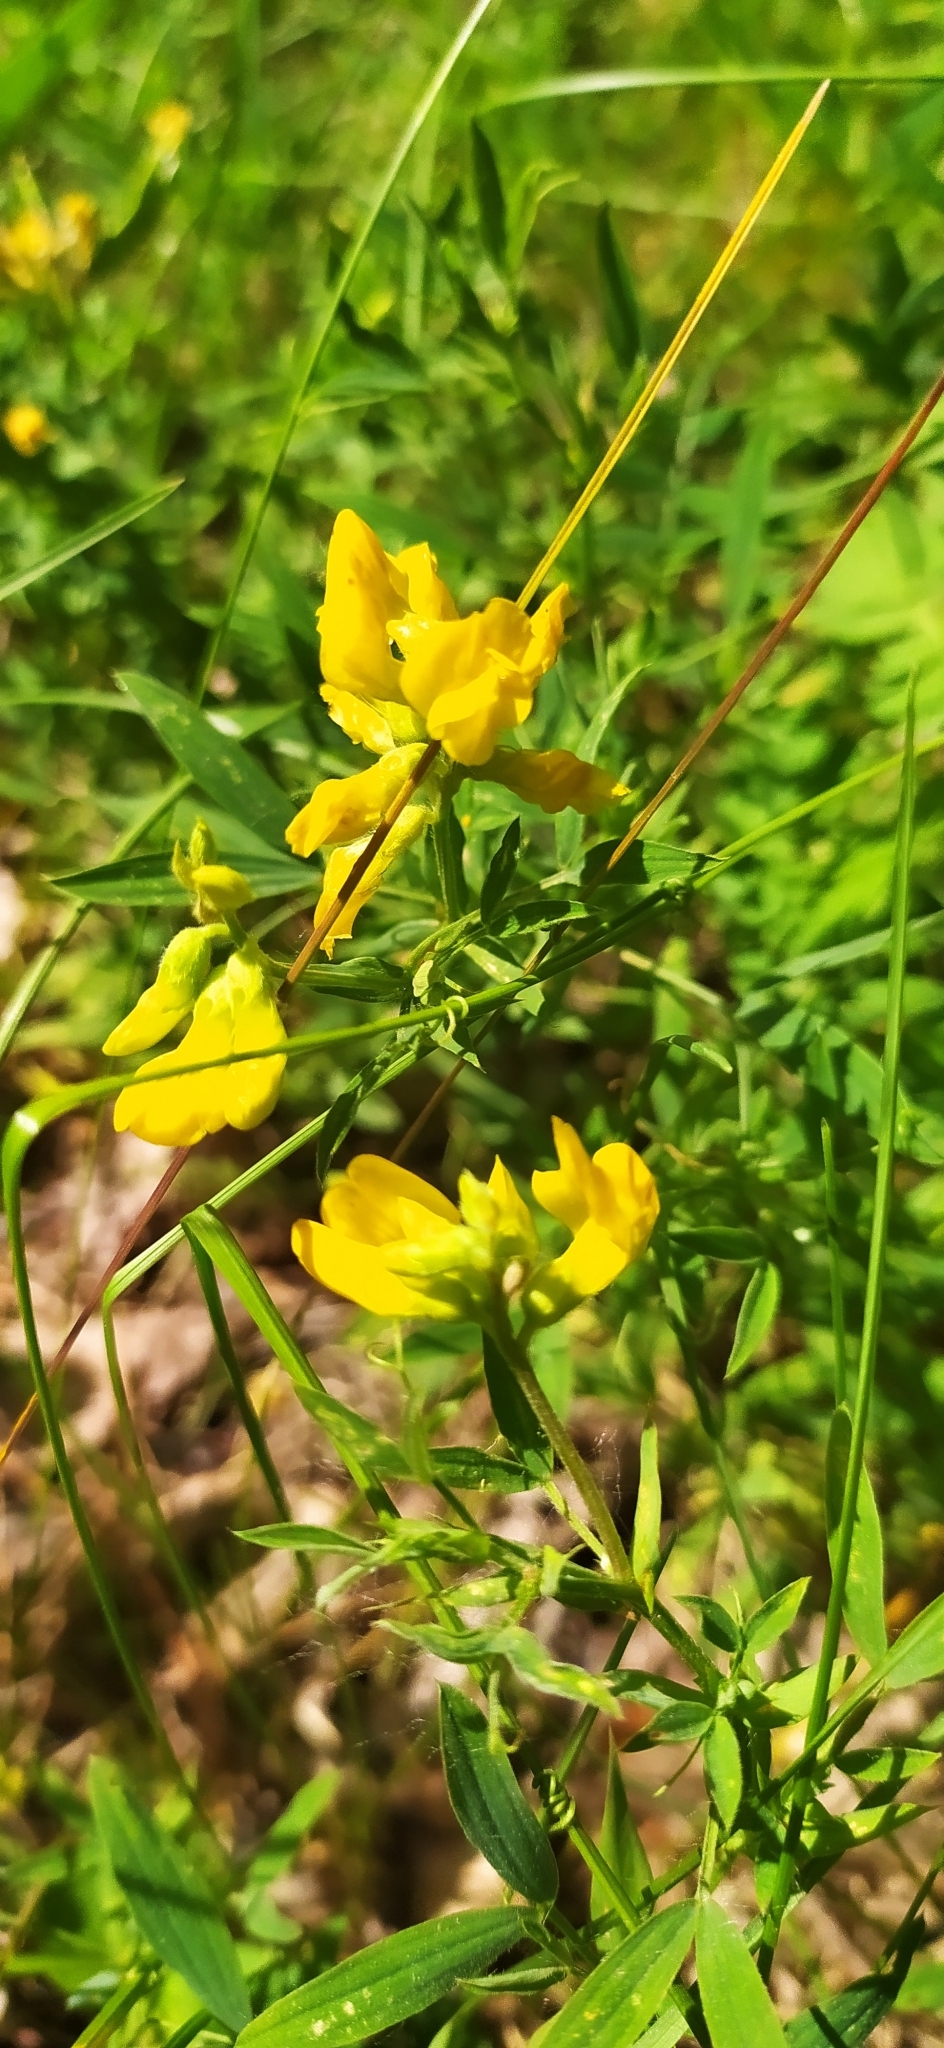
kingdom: Plantae
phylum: Tracheophyta
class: Magnoliopsida
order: Fabales
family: Fabaceae
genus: Lathyrus
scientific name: Lathyrus pratensis
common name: Meadow vetchling
